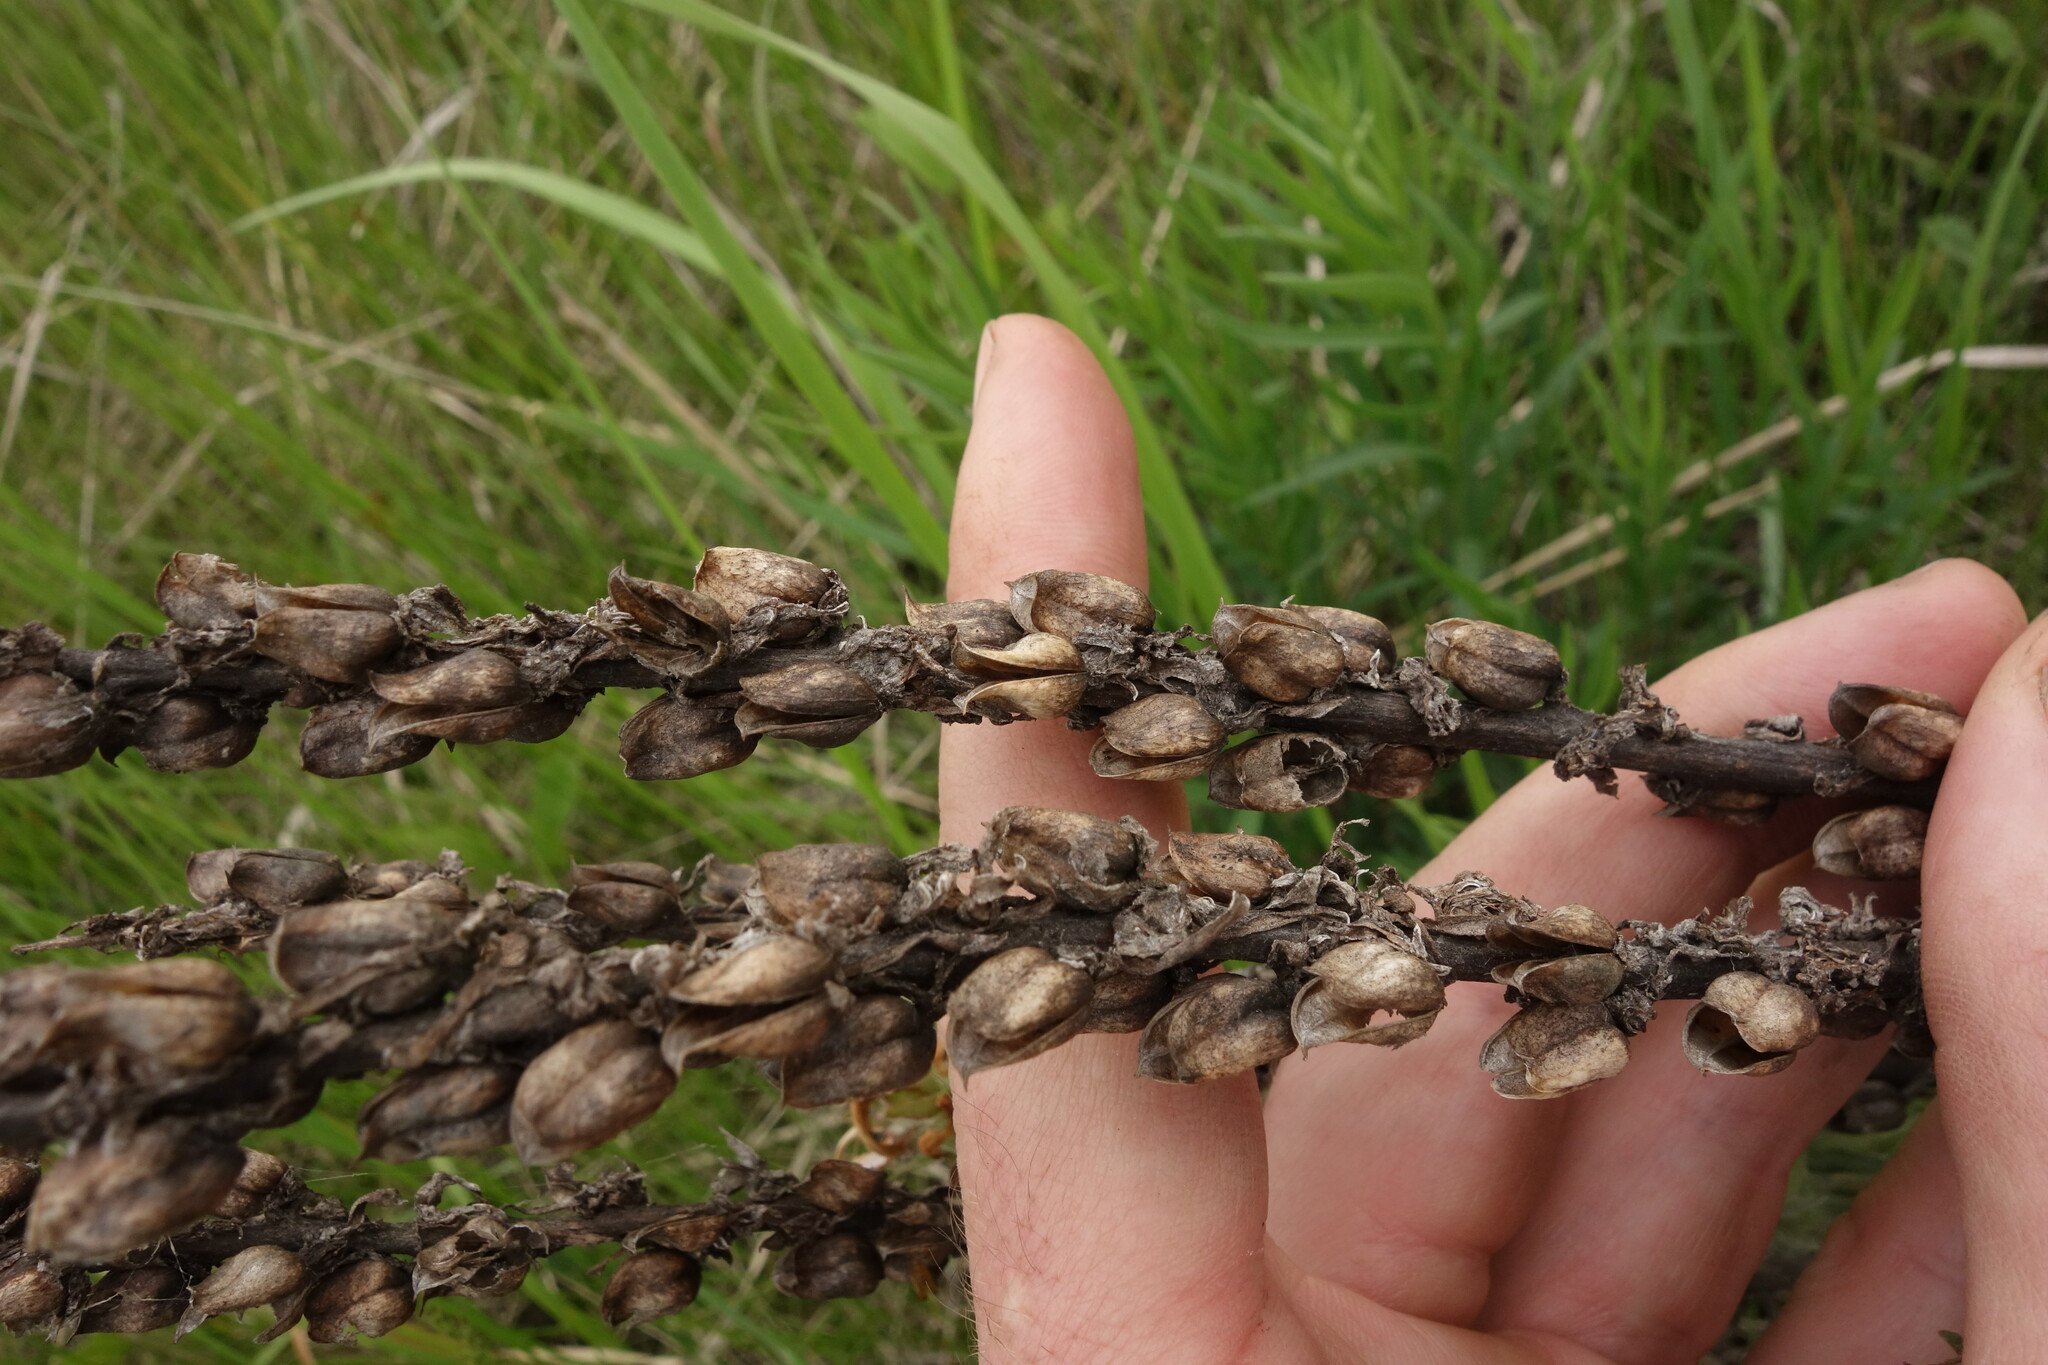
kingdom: Plantae
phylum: Tracheophyta
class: Magnoliopsida
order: Lamiales
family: Orobanchaceae
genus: Pedicularis
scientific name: Pedicularis dasystachys
